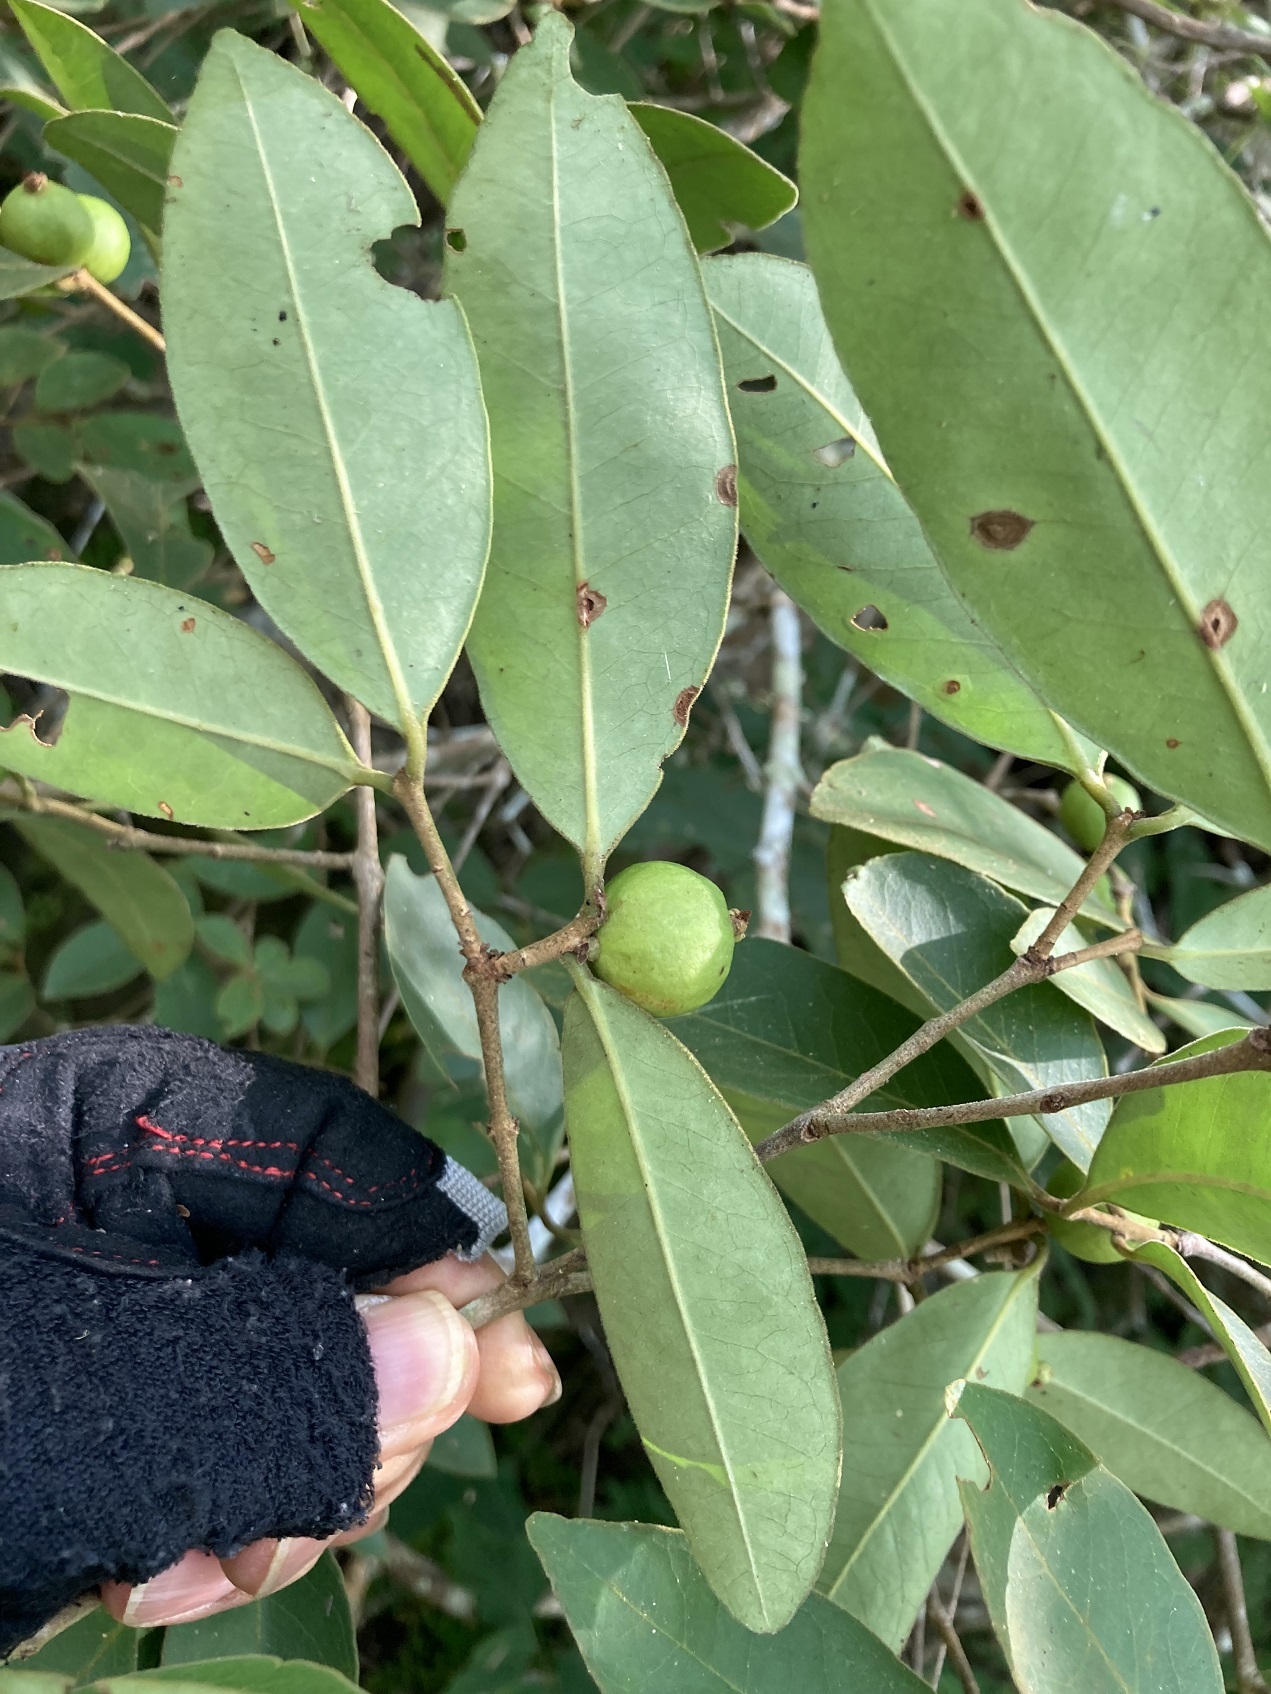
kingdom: Plantae
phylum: Tracheophyta
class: Magnoliopsida
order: Myrtales
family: Myrtaceae
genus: Eugenia
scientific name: Eugenia capulioides
